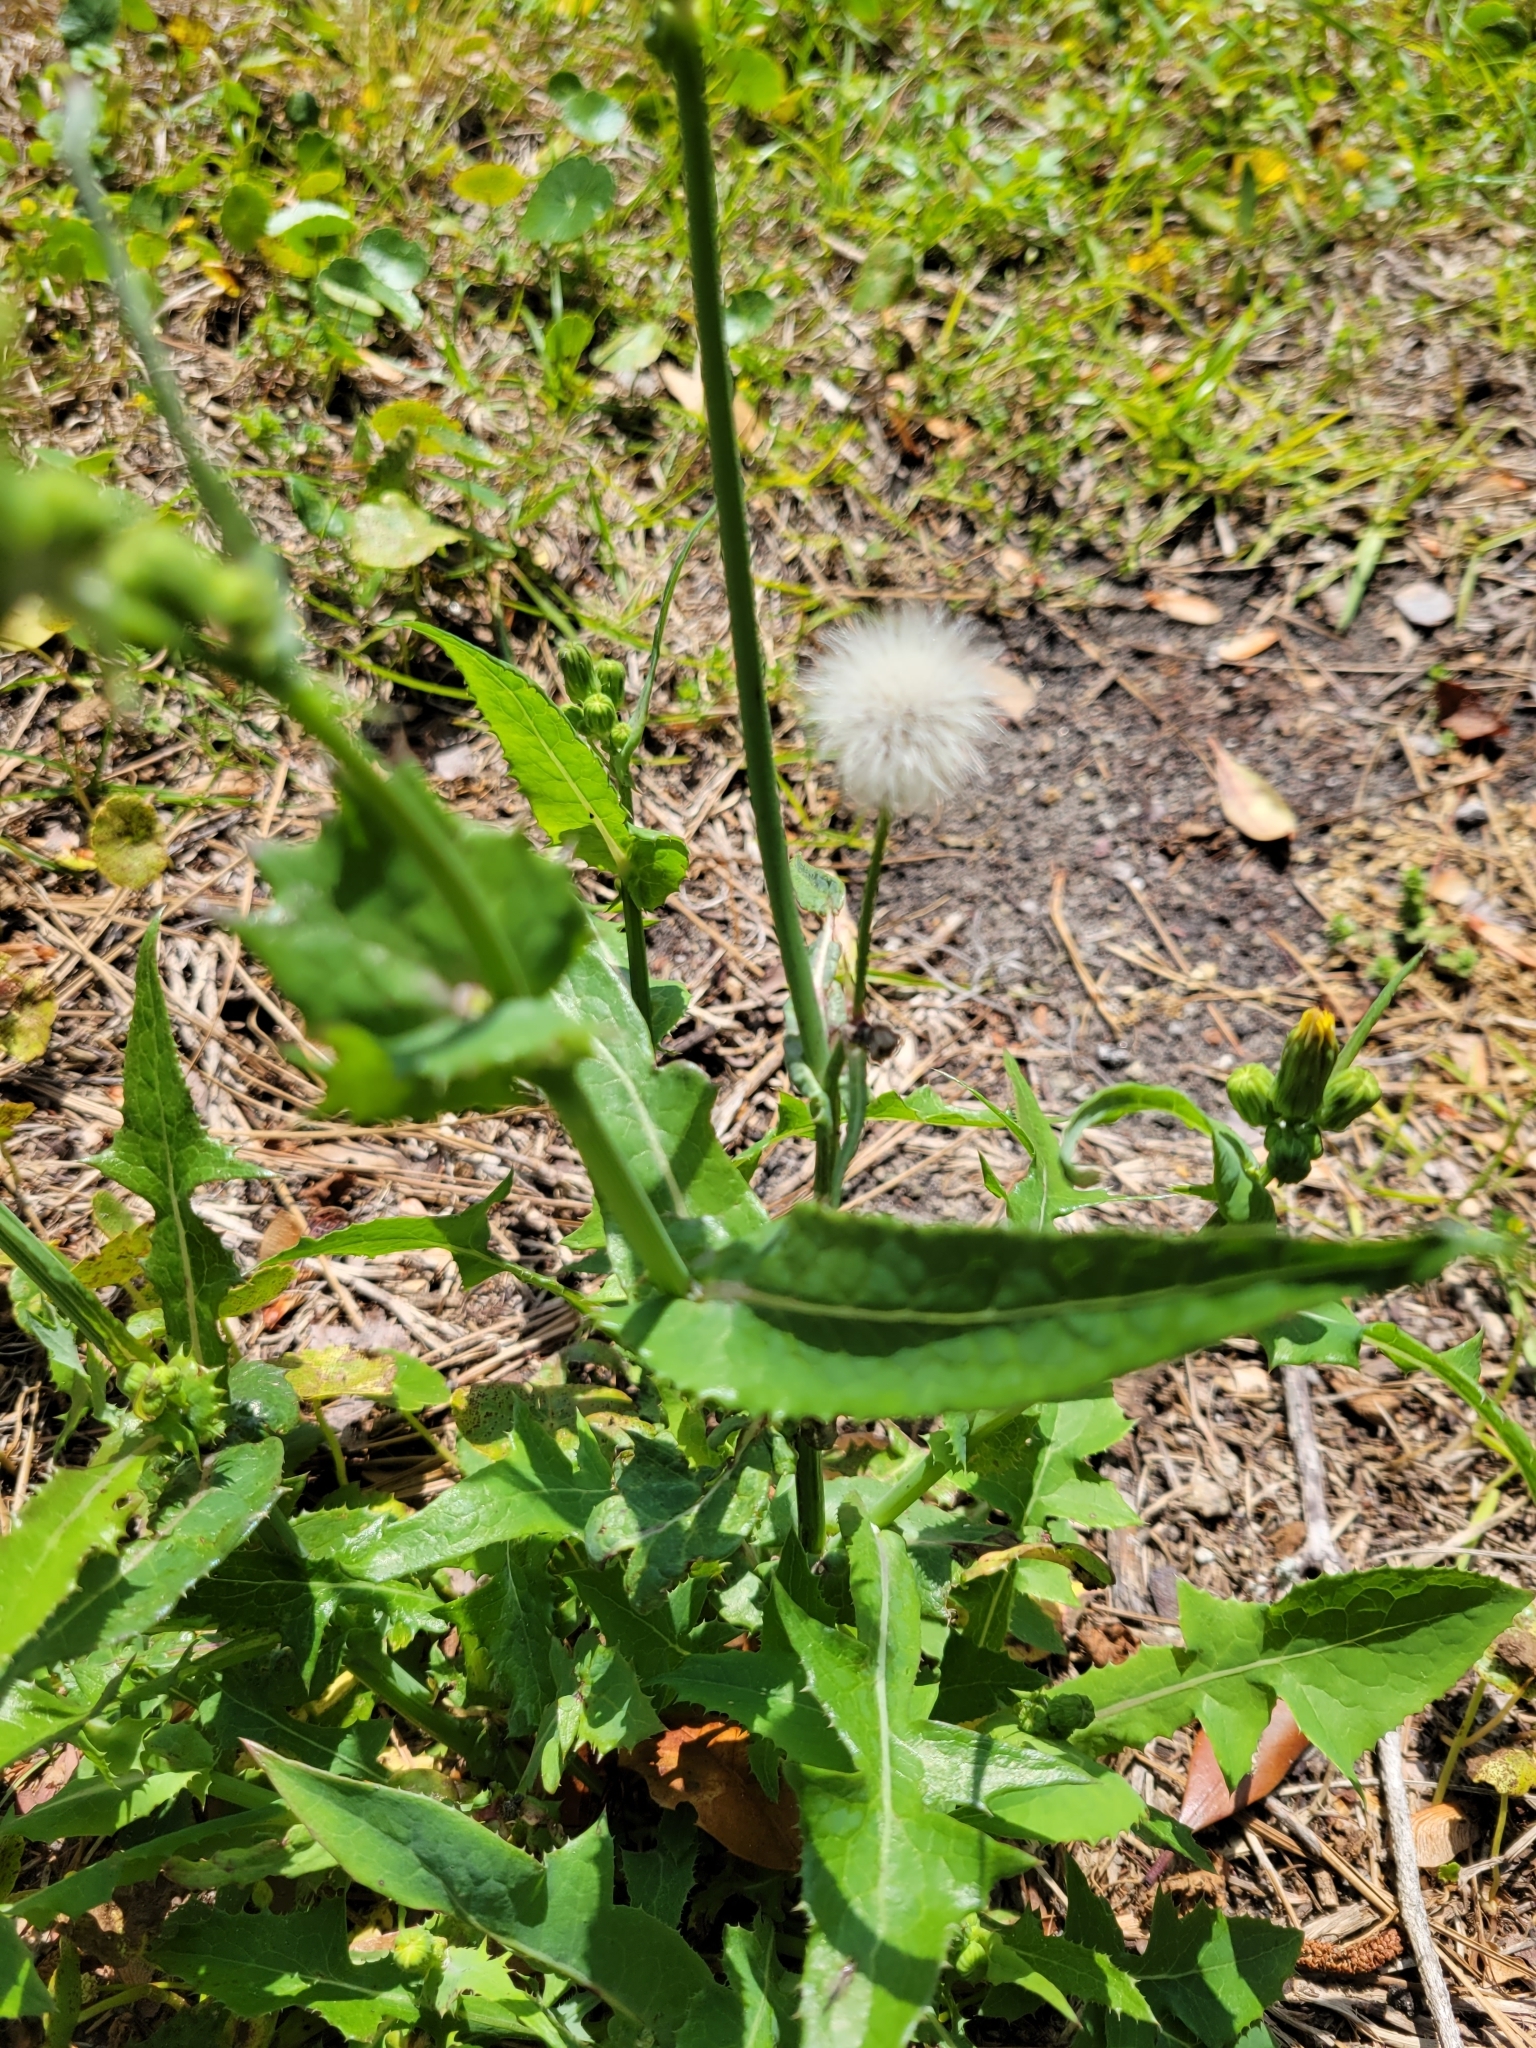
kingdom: Plantae
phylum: Tracheophyta
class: Magnoliopsida
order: Asterales
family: Asteraceae
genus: Sonchus
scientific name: Sonchus oleraceus
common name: Common sowthistle
